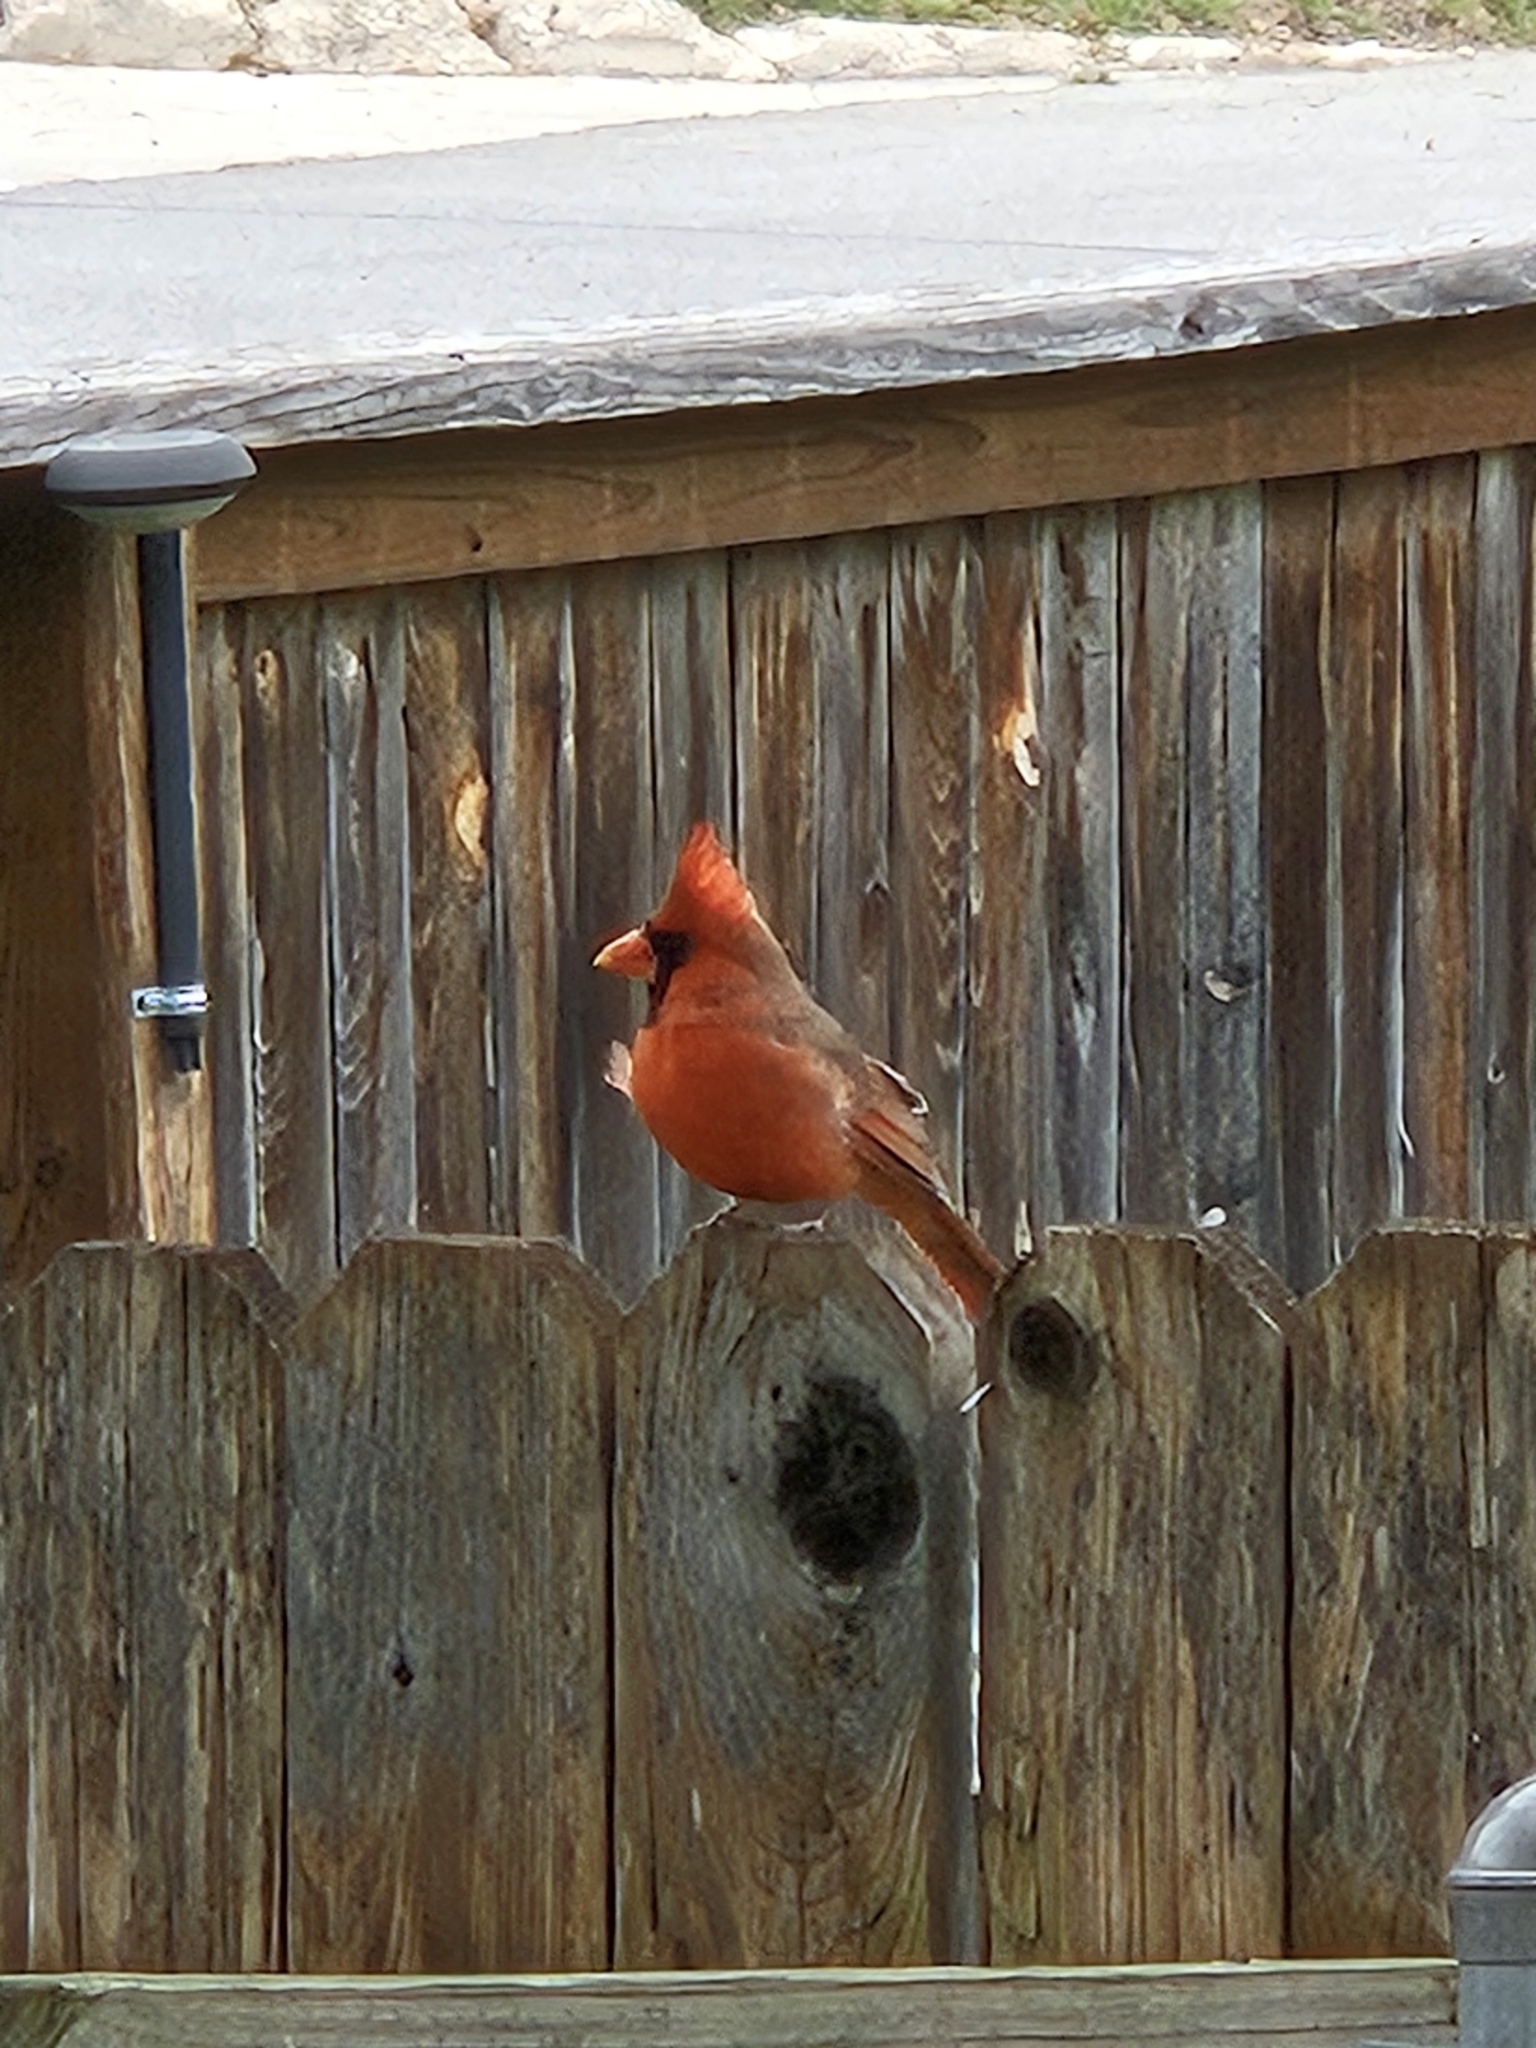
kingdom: Animalia
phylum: Chordata
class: Aves
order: Passeriformes
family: Cardinalidae
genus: Cardinalis
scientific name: Cardinalis cardinalis
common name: Northern cardinal
